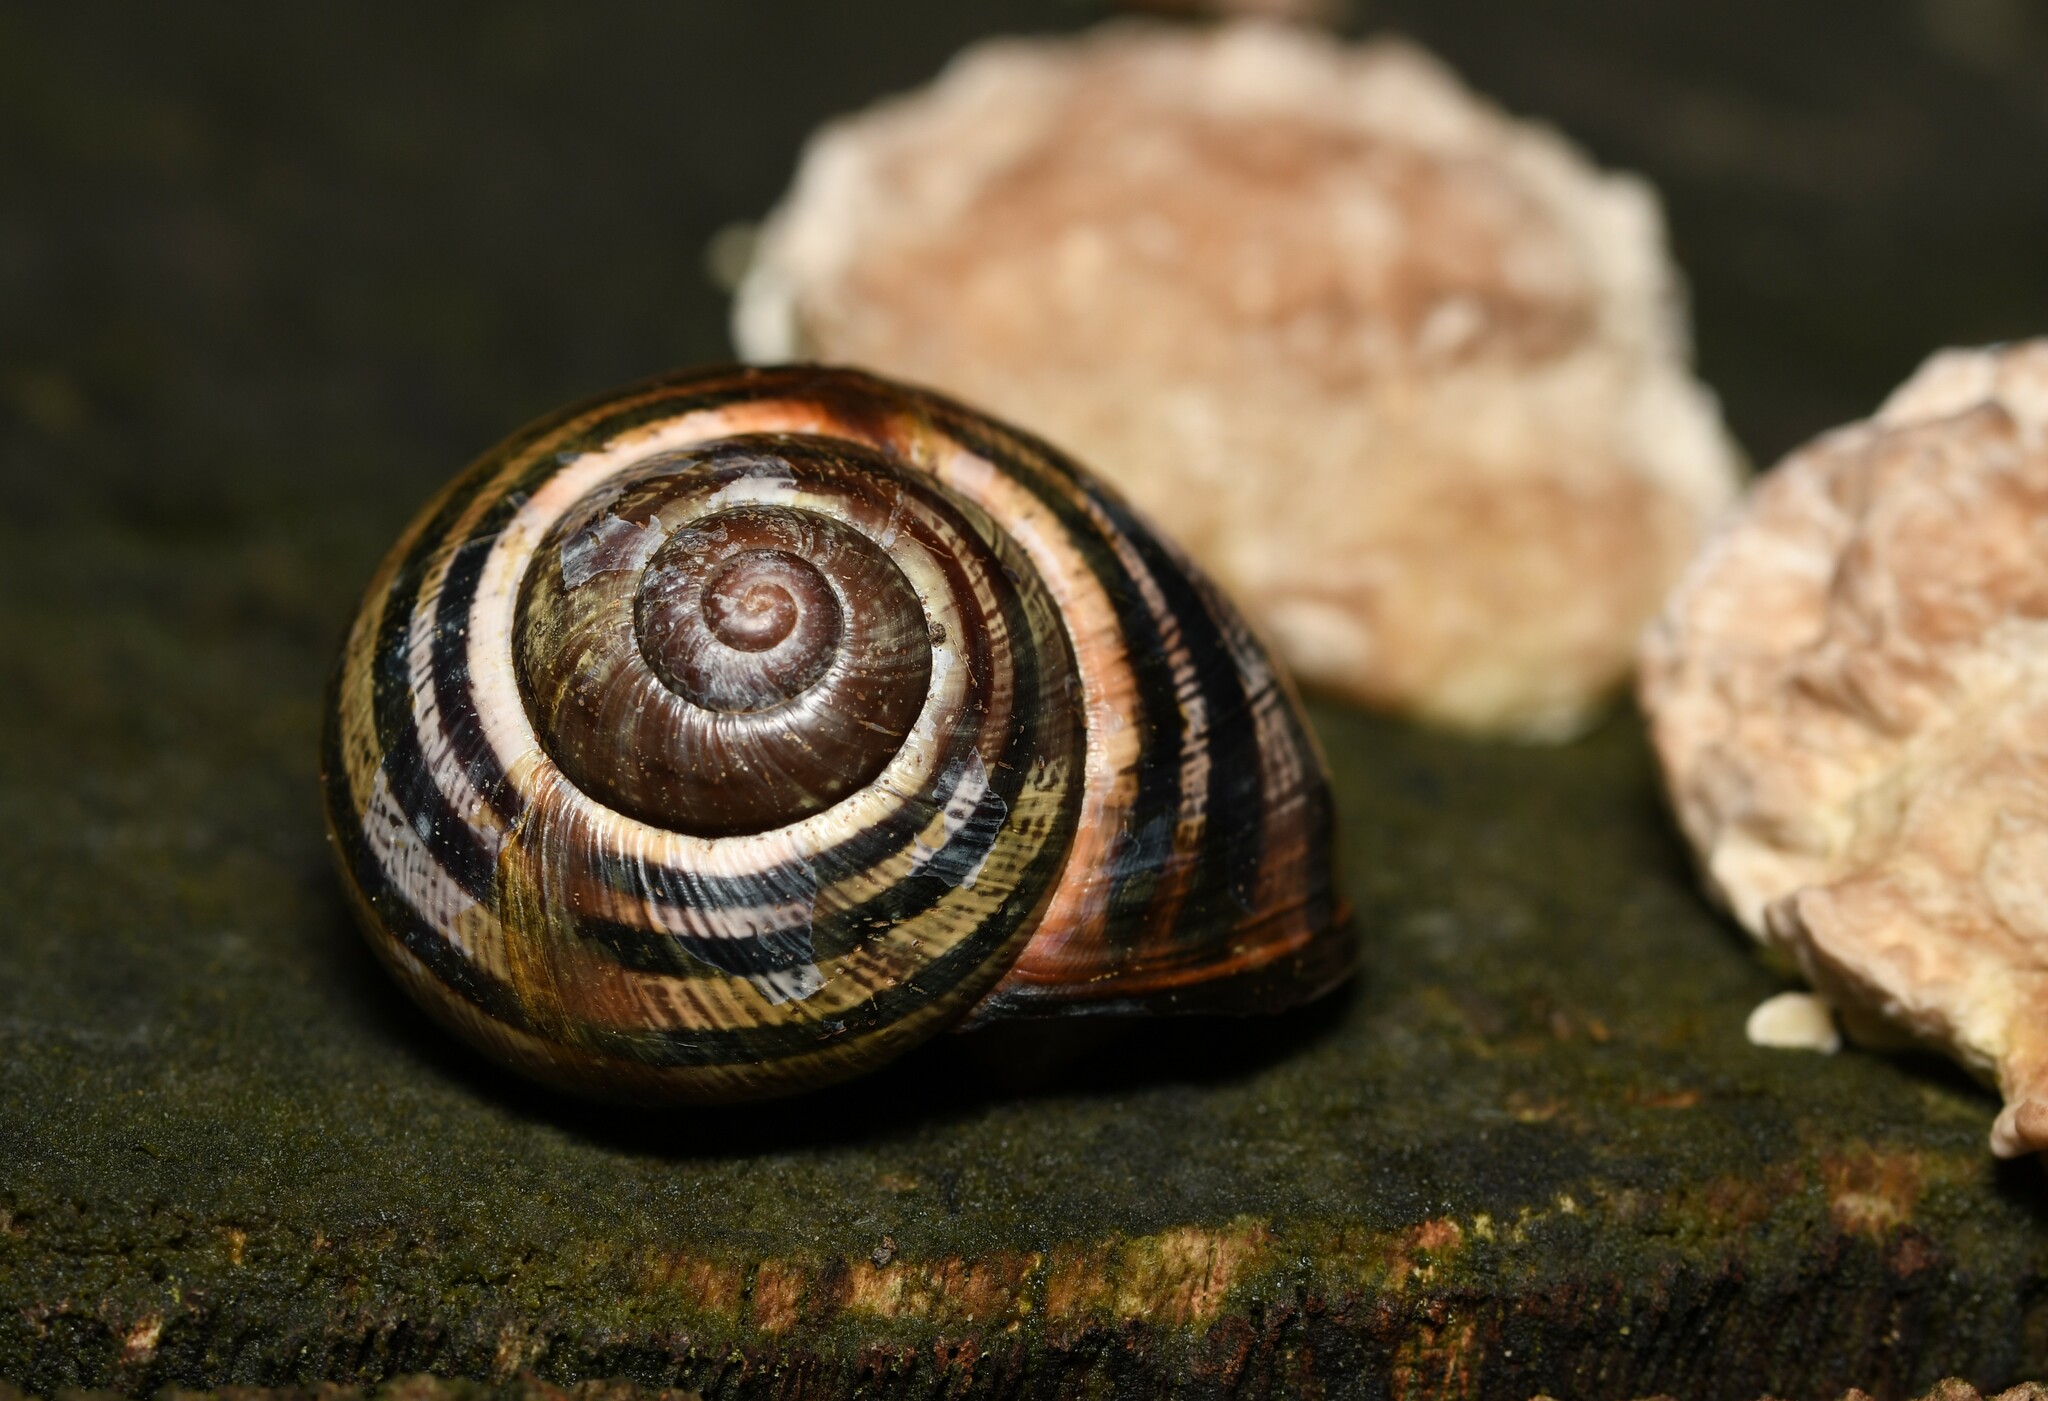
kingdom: Animalia
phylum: Mollusca
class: Gastropoda
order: Stylommatophora
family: Helicidae
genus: Cepaea
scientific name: Cepaea nemoralis
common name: Grovesnail
